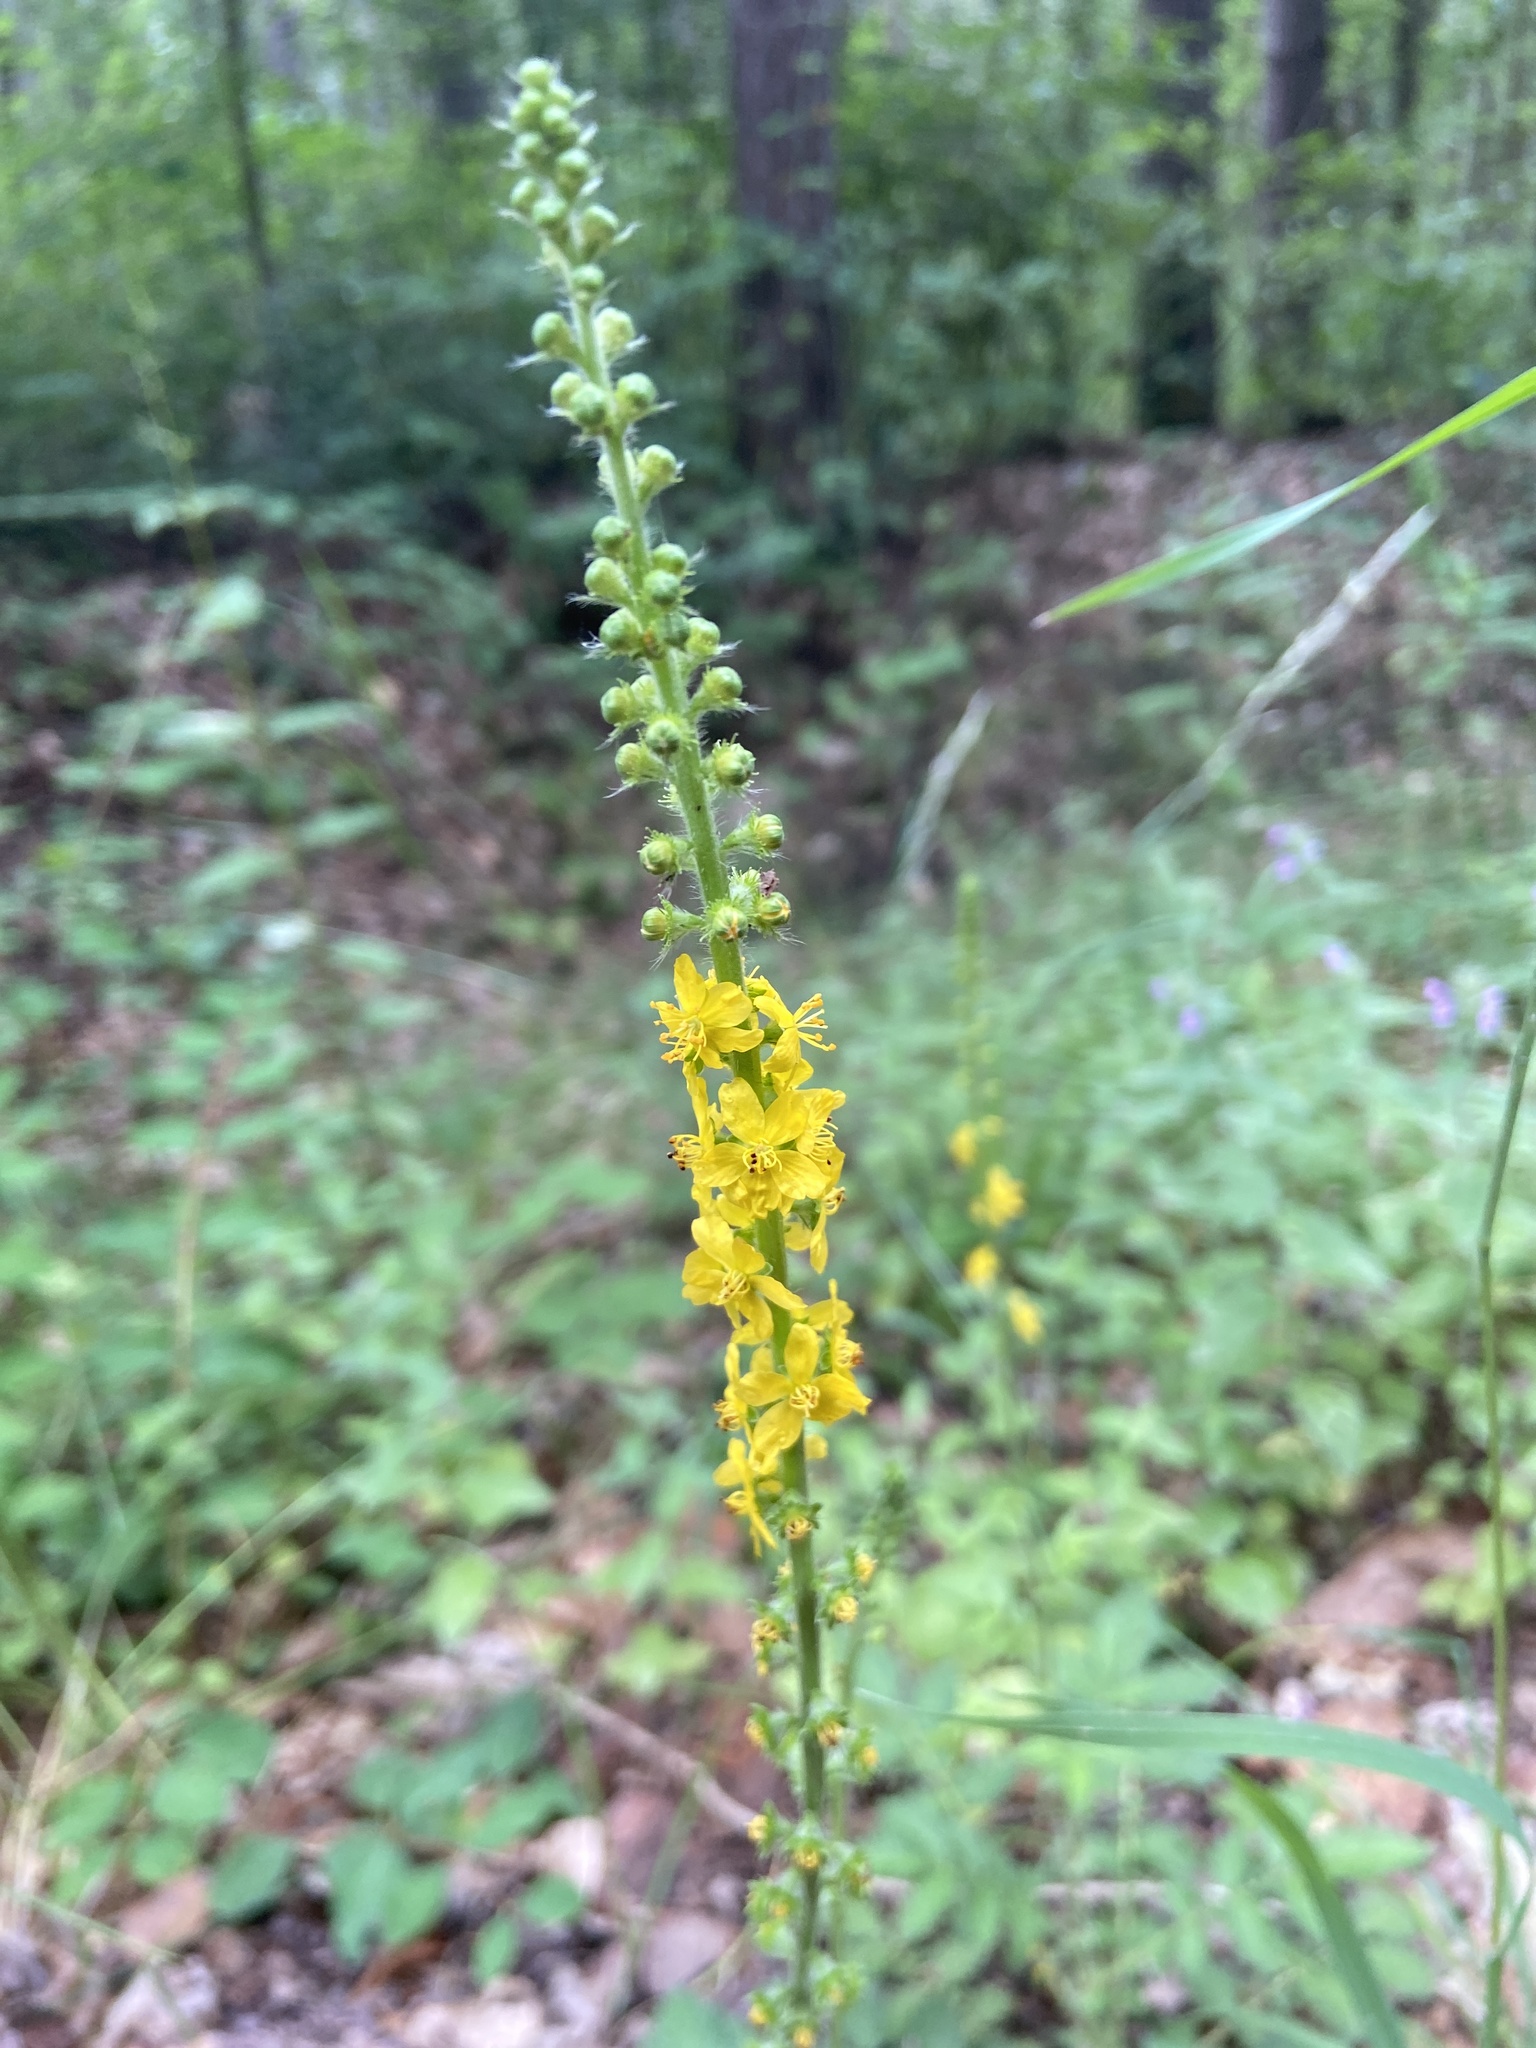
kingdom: Plantae
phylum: Tracheophyta
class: Magnoliopsida
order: Rosales
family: Rosaceae
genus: Agrimonia
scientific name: Agrimonia eupatoria
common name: Agrimony
